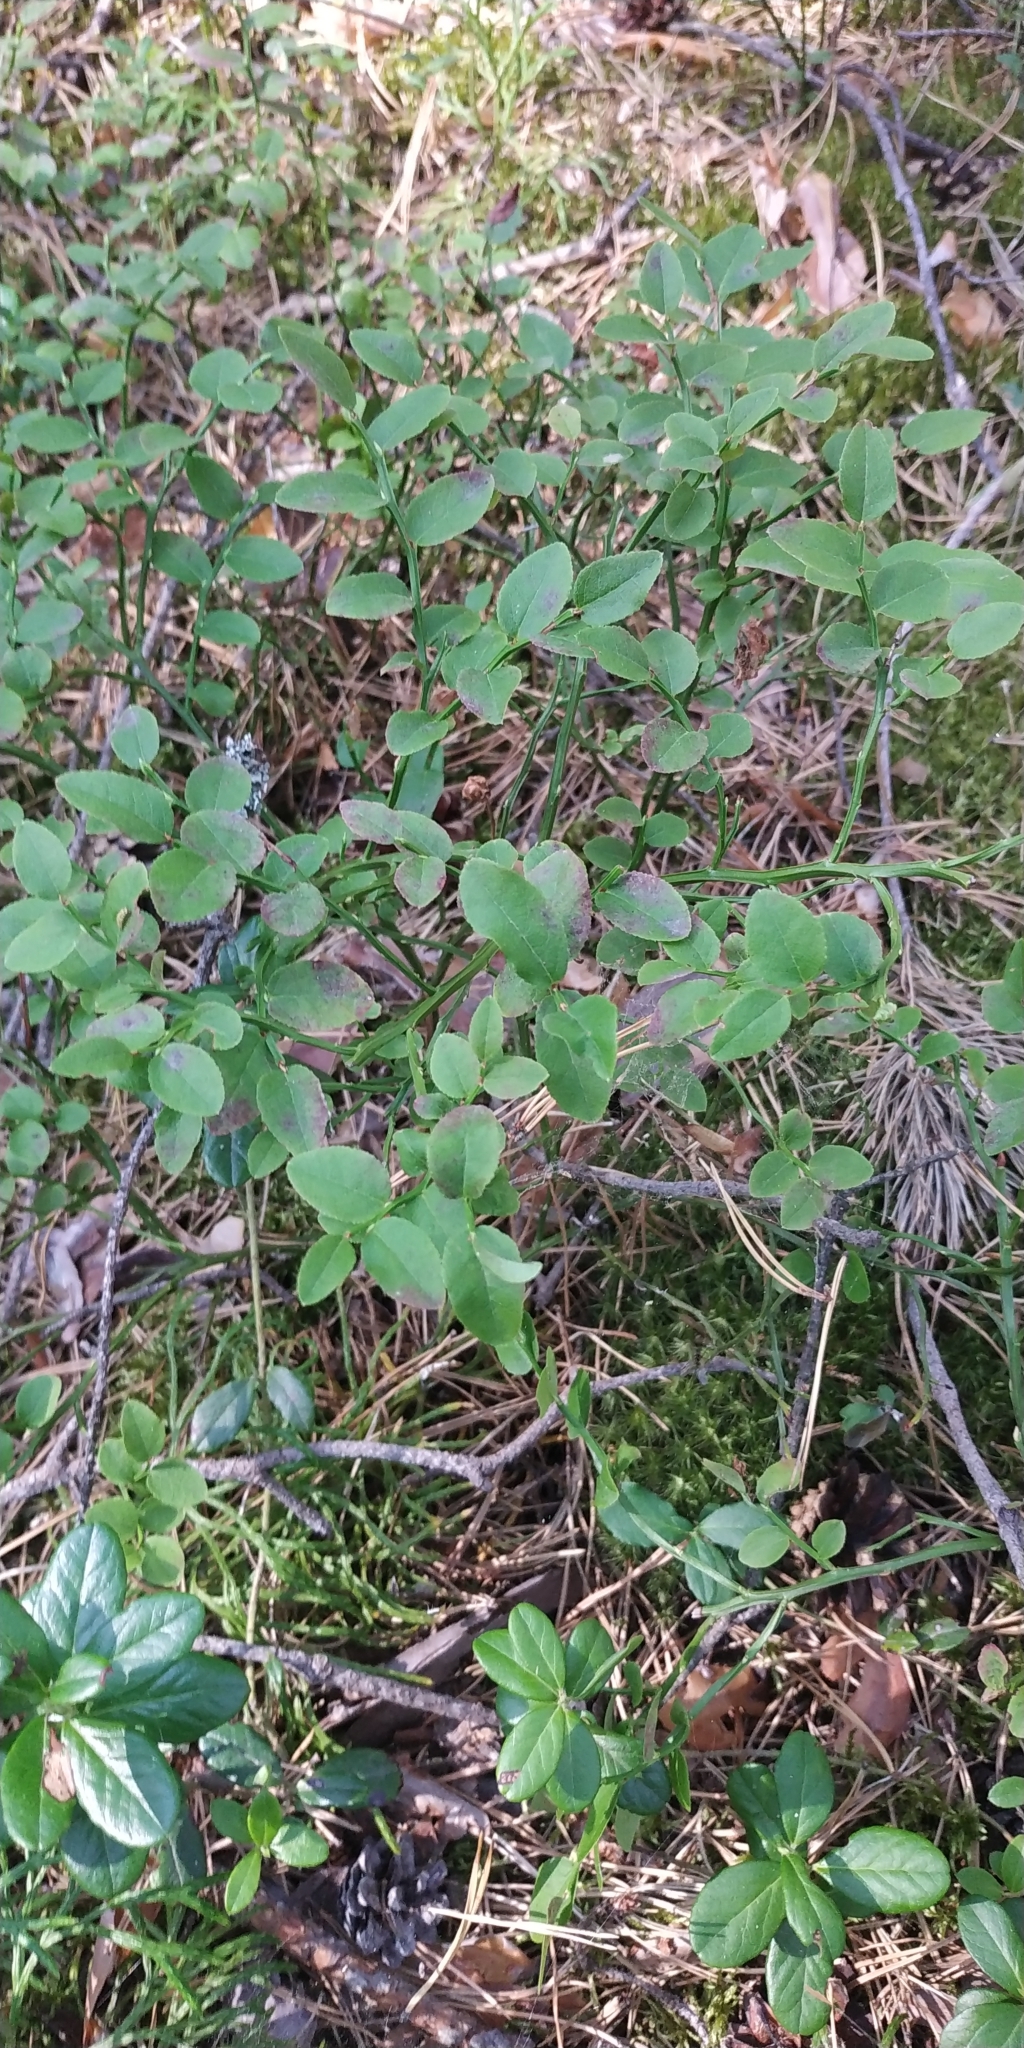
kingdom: Plantae
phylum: Tracheophyta
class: Magnoliopsida
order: Ericales
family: Ericaceae
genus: Vaccinium
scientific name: Vaccinium myrtillus
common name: Bilberry
